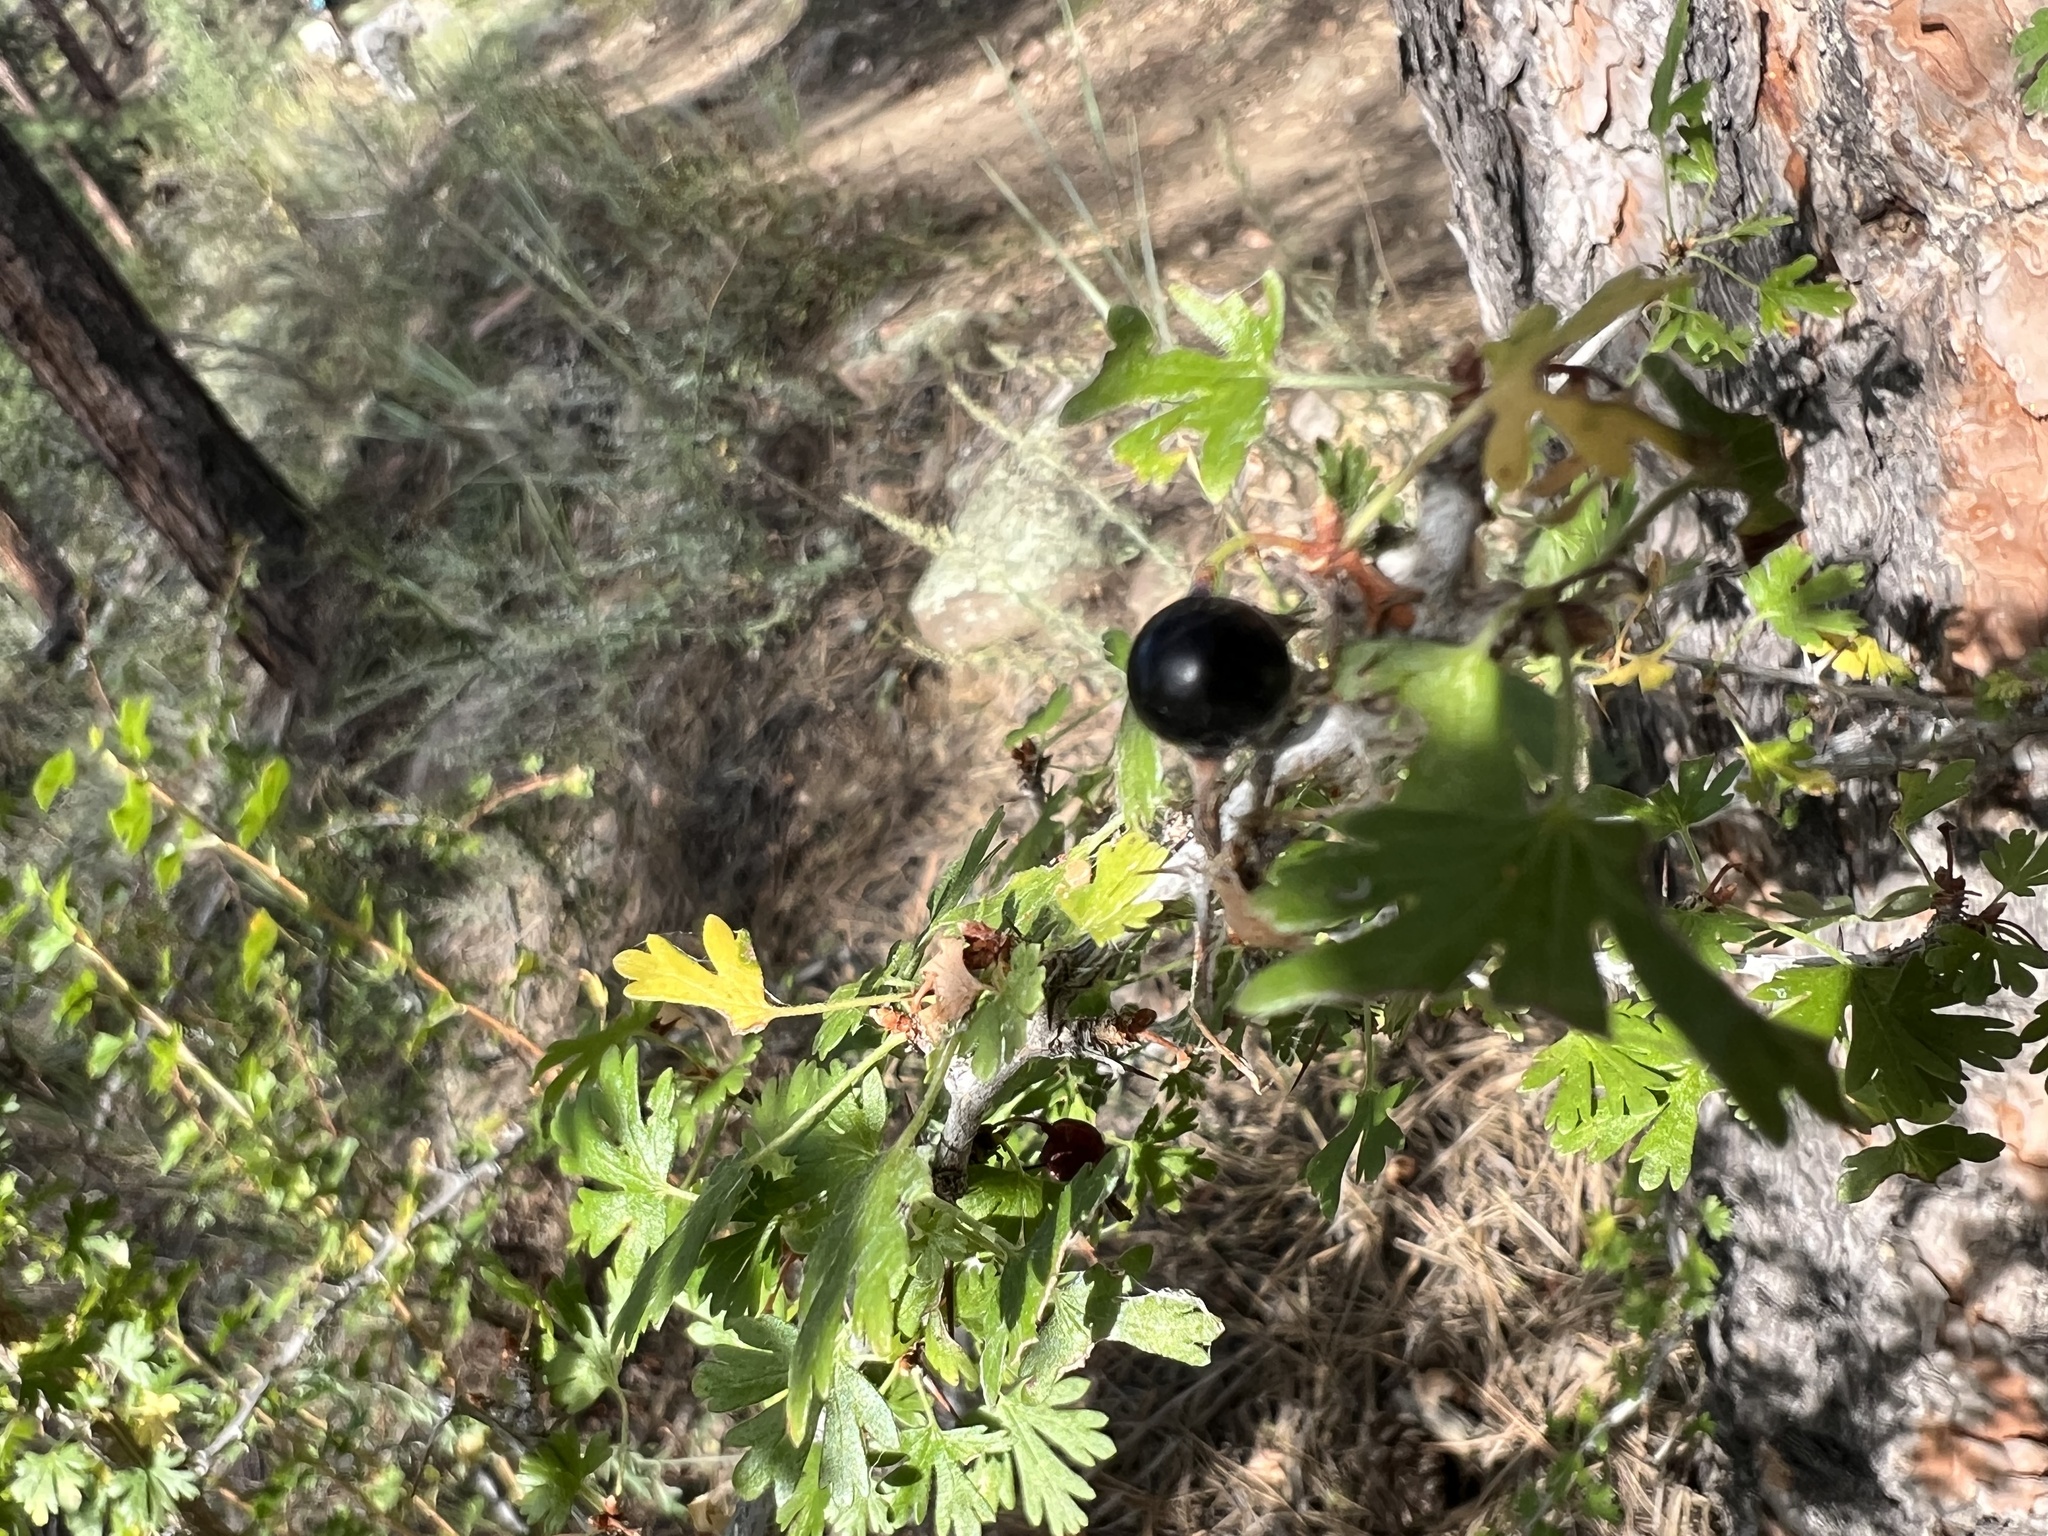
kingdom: Plantae
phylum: Tracheophyta
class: Magnoliopsida
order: Saxifragales
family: Grossulariaceae
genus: Ribes
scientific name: Ribes leptanthum
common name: Trumpet gooseberry
